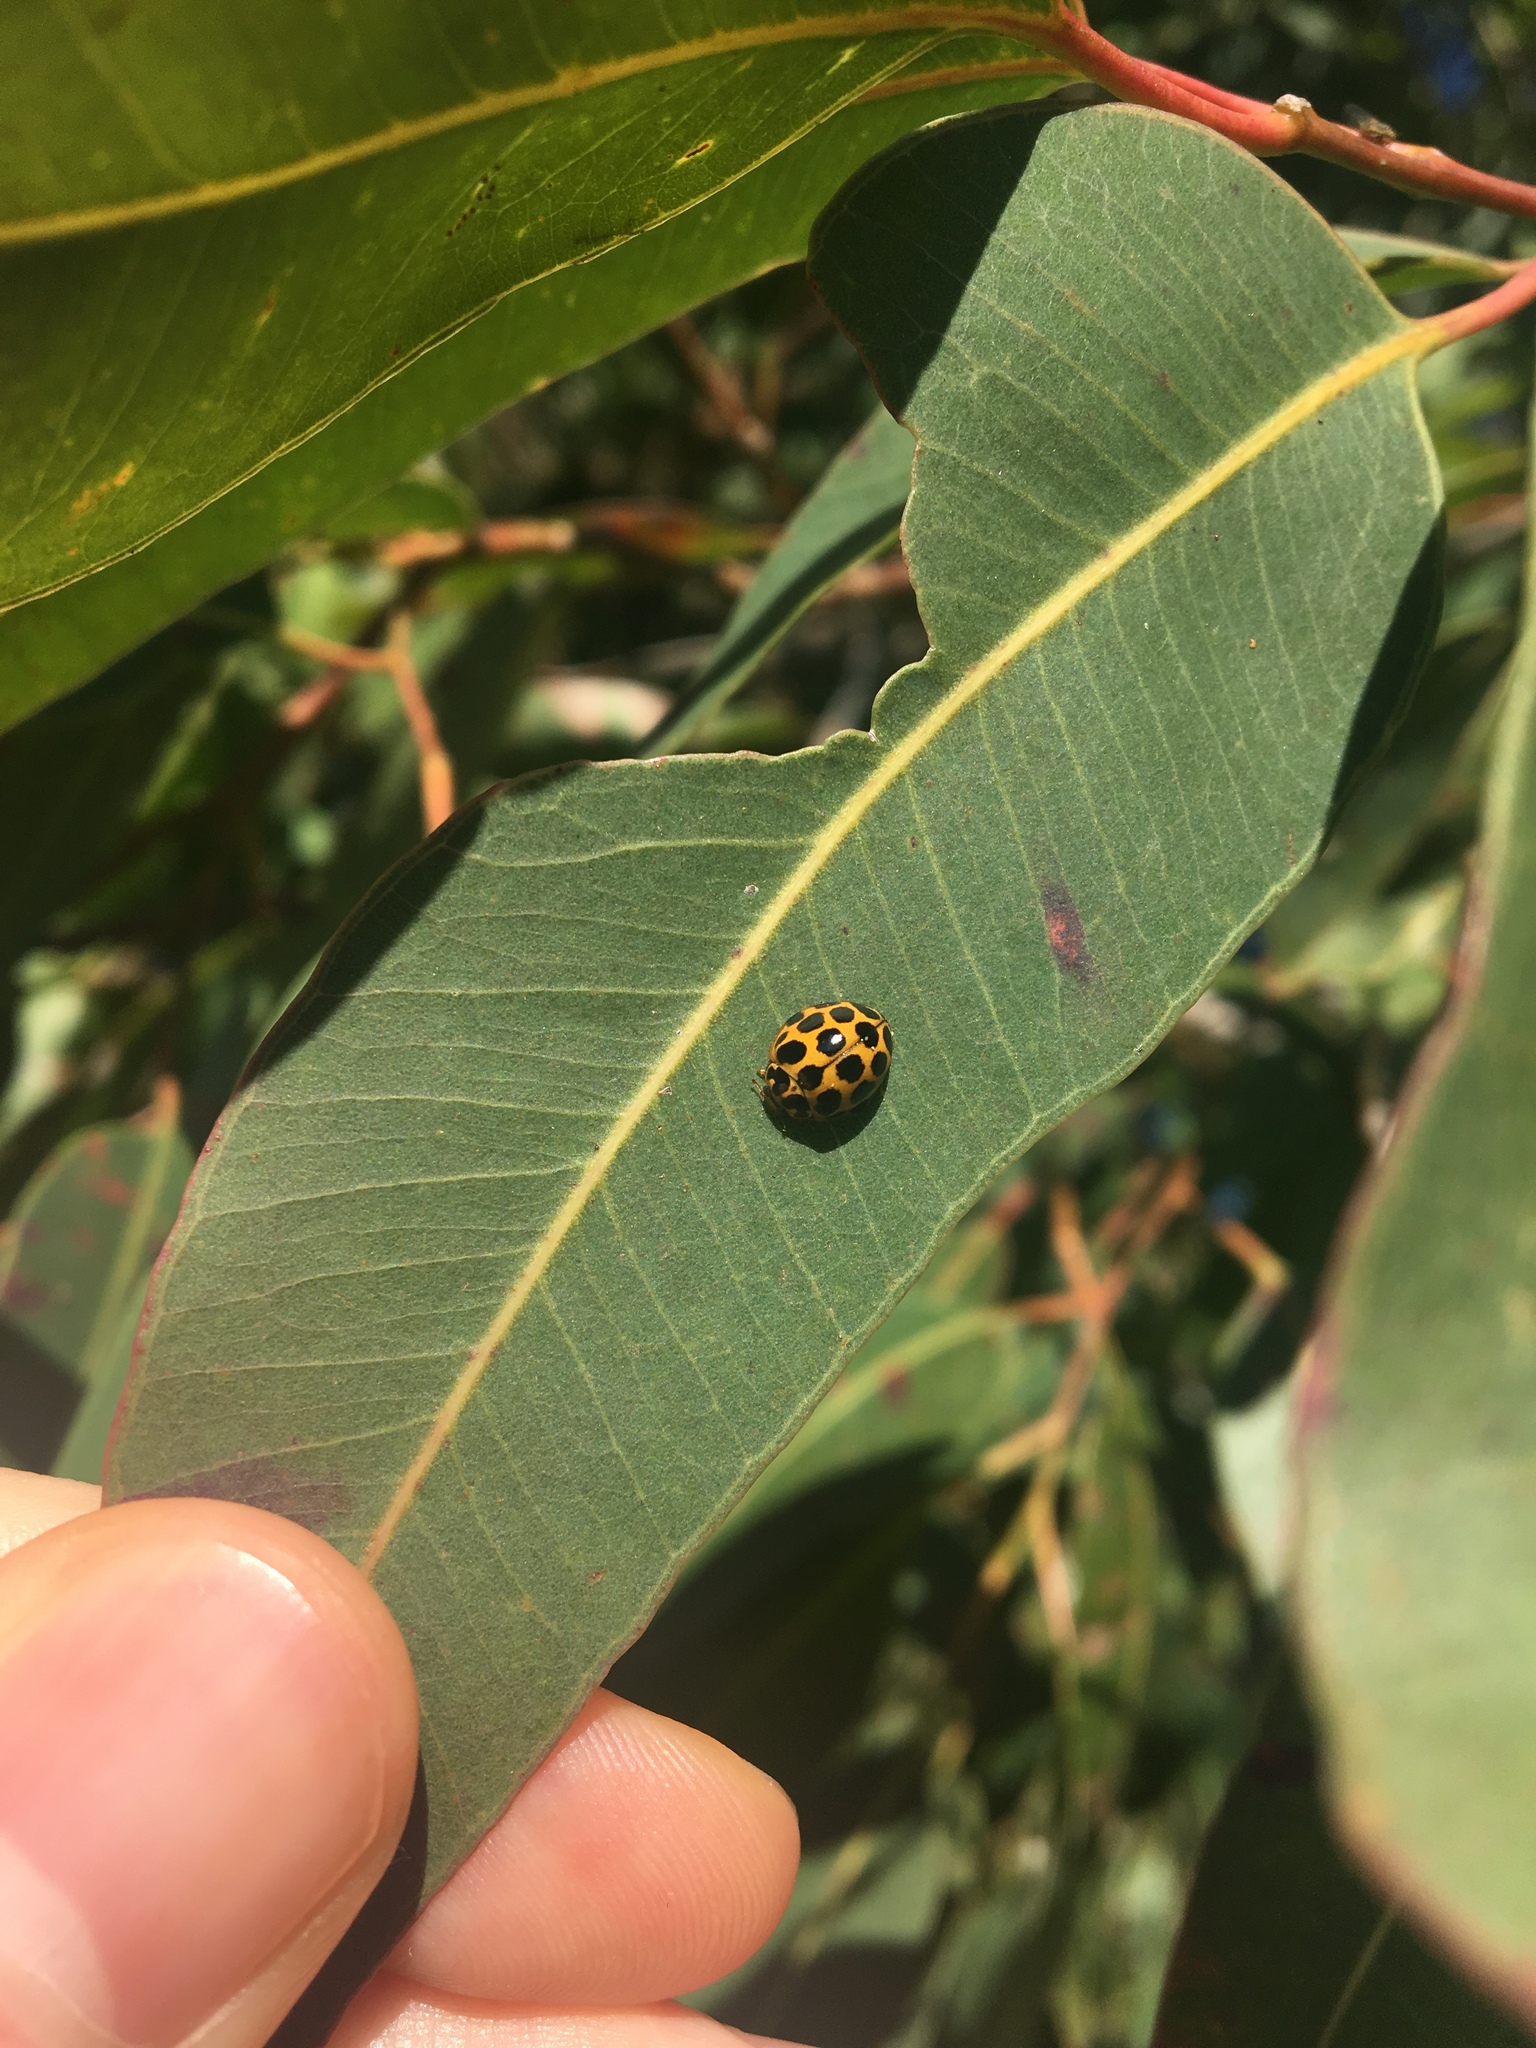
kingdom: Animalia
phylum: Arthropoda
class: Insecta
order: Coleoptera
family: Coccinellidae
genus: Harmonia
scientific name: Harmonia conformis
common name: Common spotted ladybird beetle
